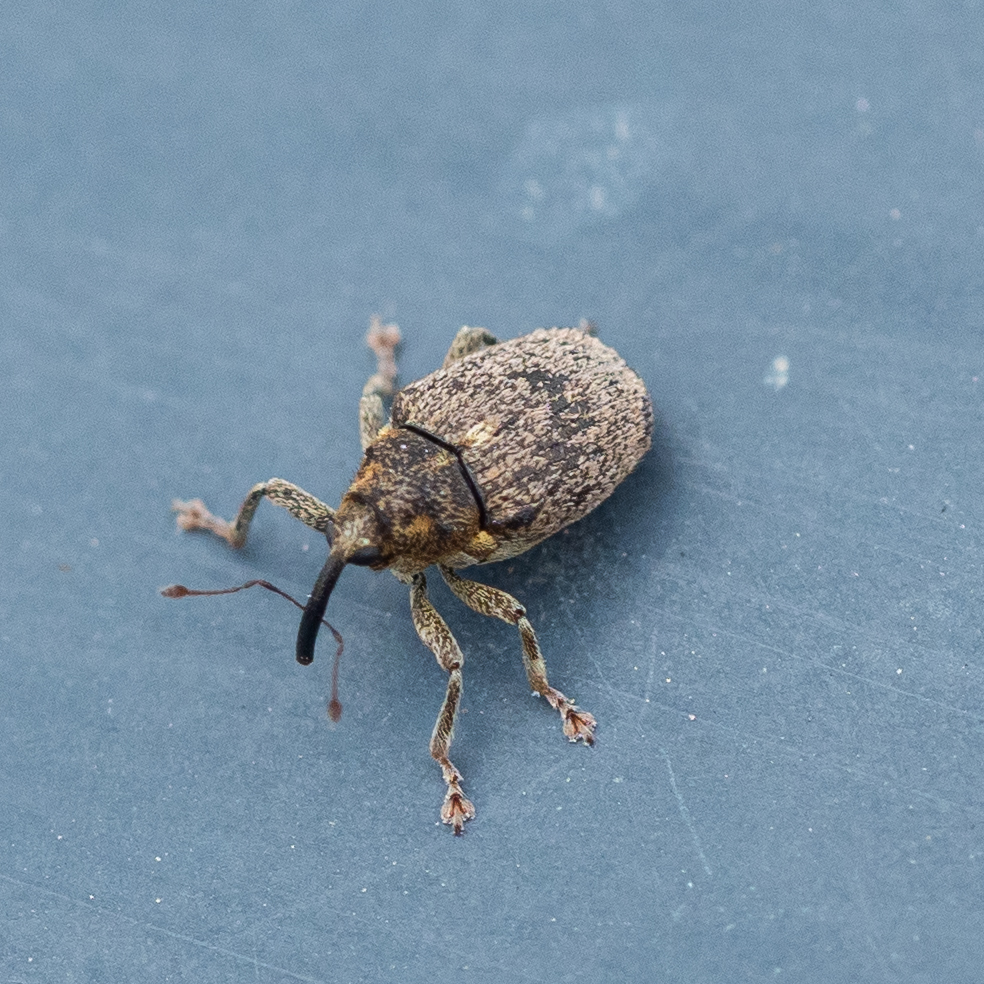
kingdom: Animalia
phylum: Arthropoda
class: Insecta
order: Coleoptera
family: Curculionidae
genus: Ceutorhynchus
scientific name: Ceutorhynchus pallidactylus
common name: Cabbage stem weavil
